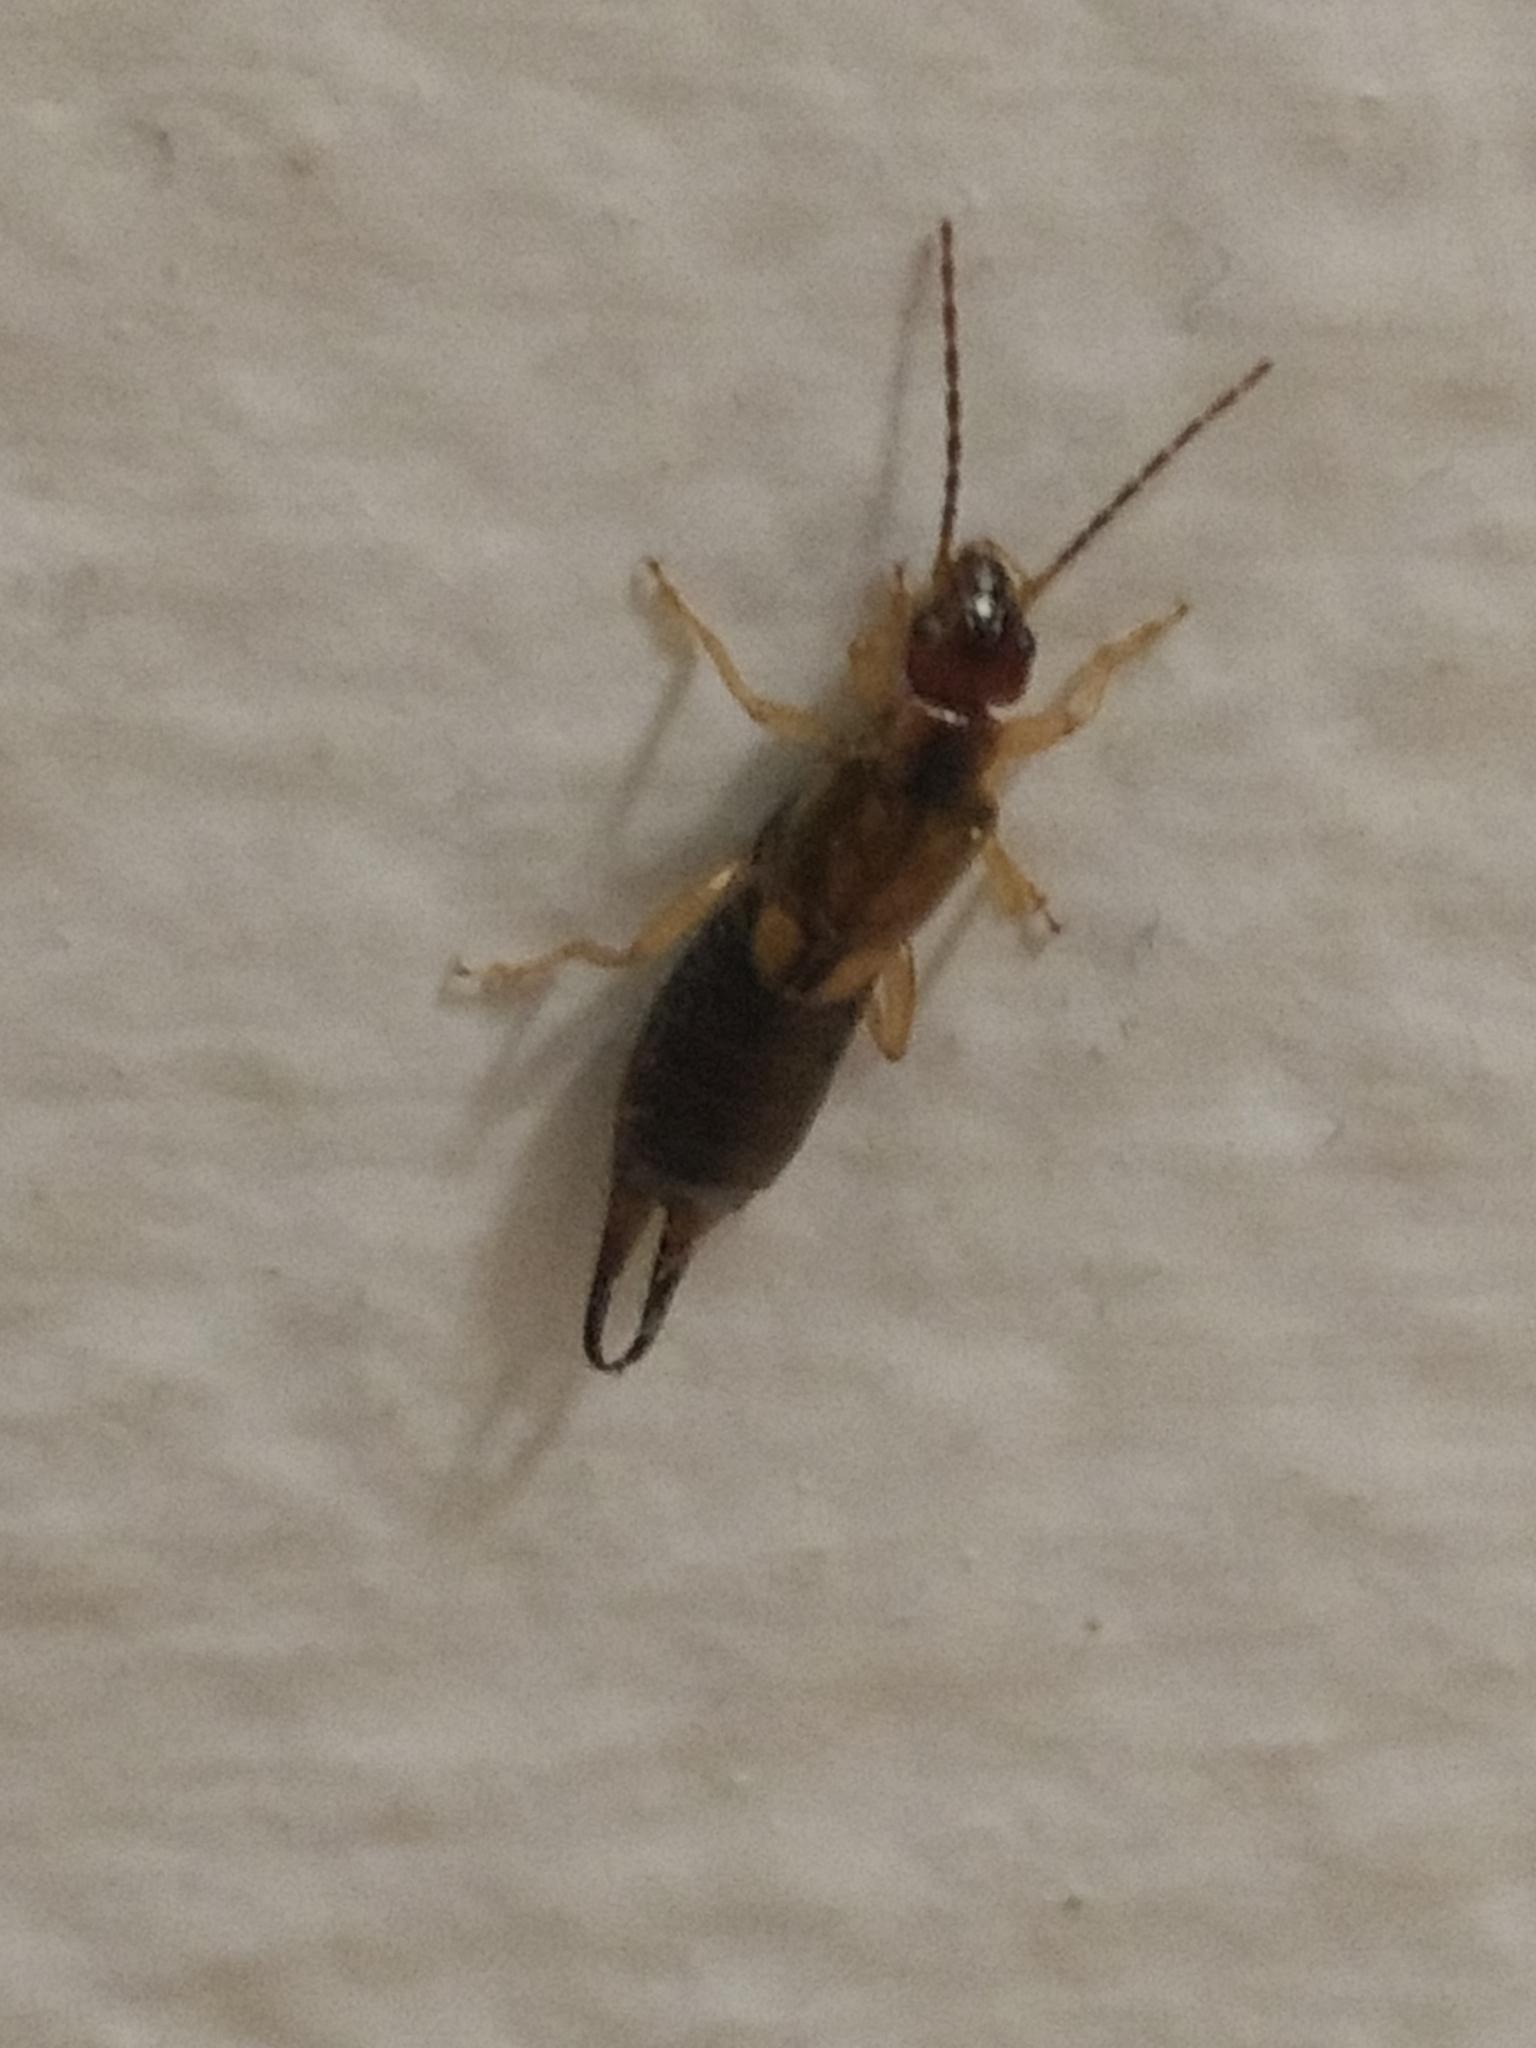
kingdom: Animalia
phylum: Arthropoda
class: Insecta
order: Dermaptera
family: Forficulidae
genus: Forficula
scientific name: Forficula
